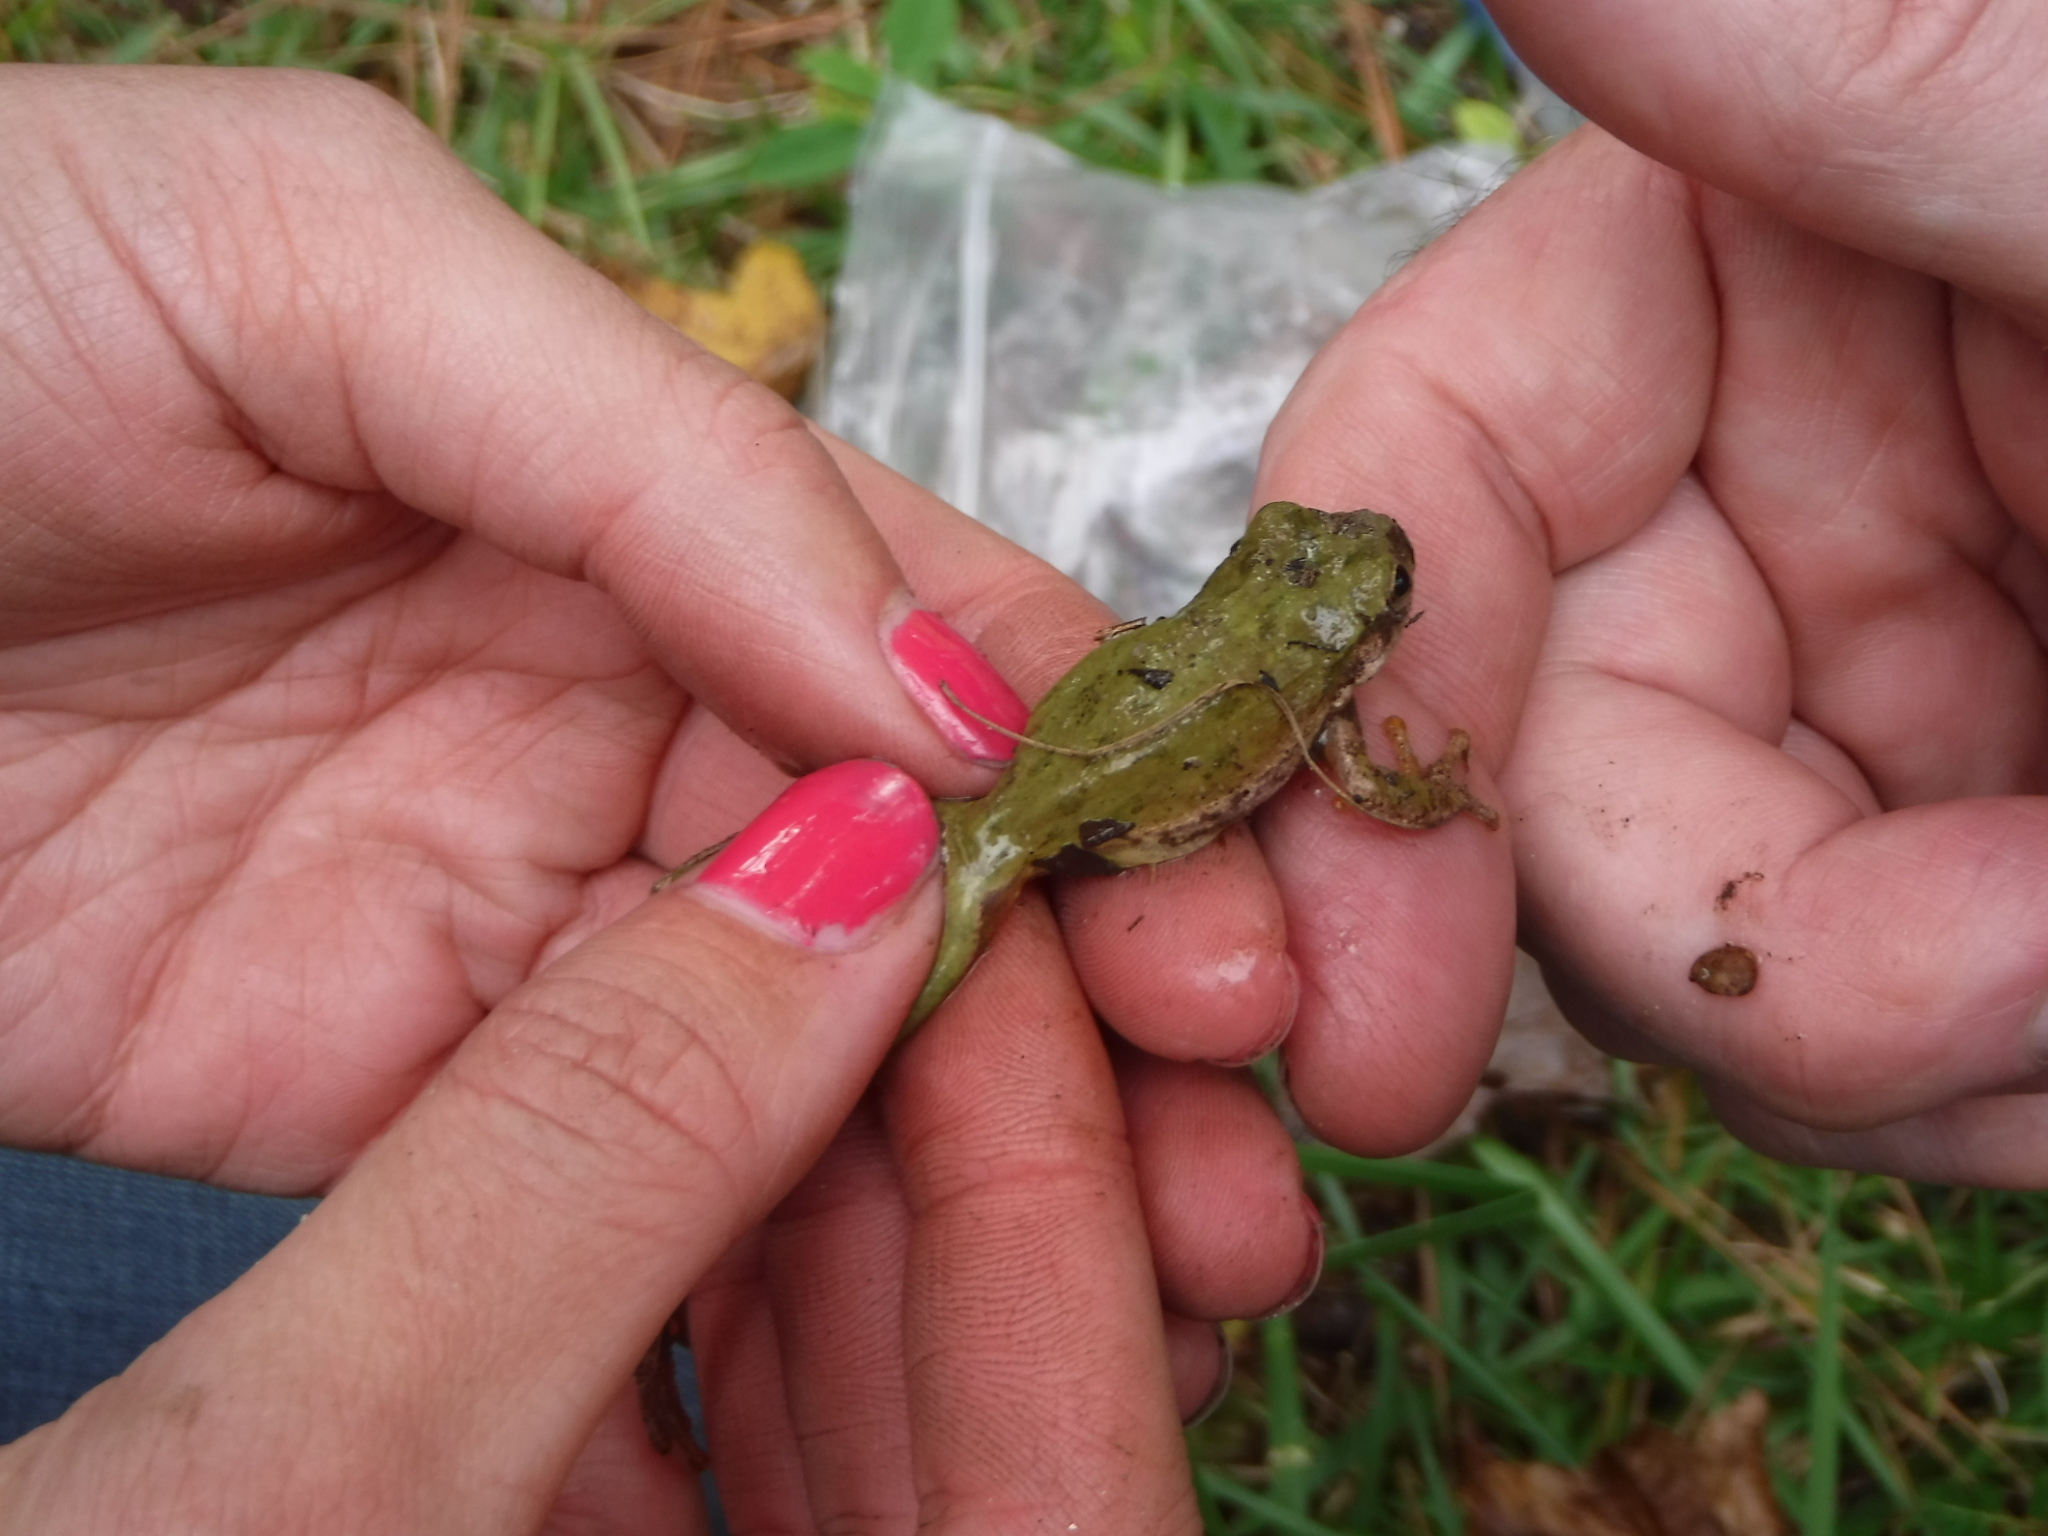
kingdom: Animalia
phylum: Chordata
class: Amphibia
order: Anura
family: Hylidae
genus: Dryophytes
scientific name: Dryophytes squirellus
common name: Squirrel treefrog
